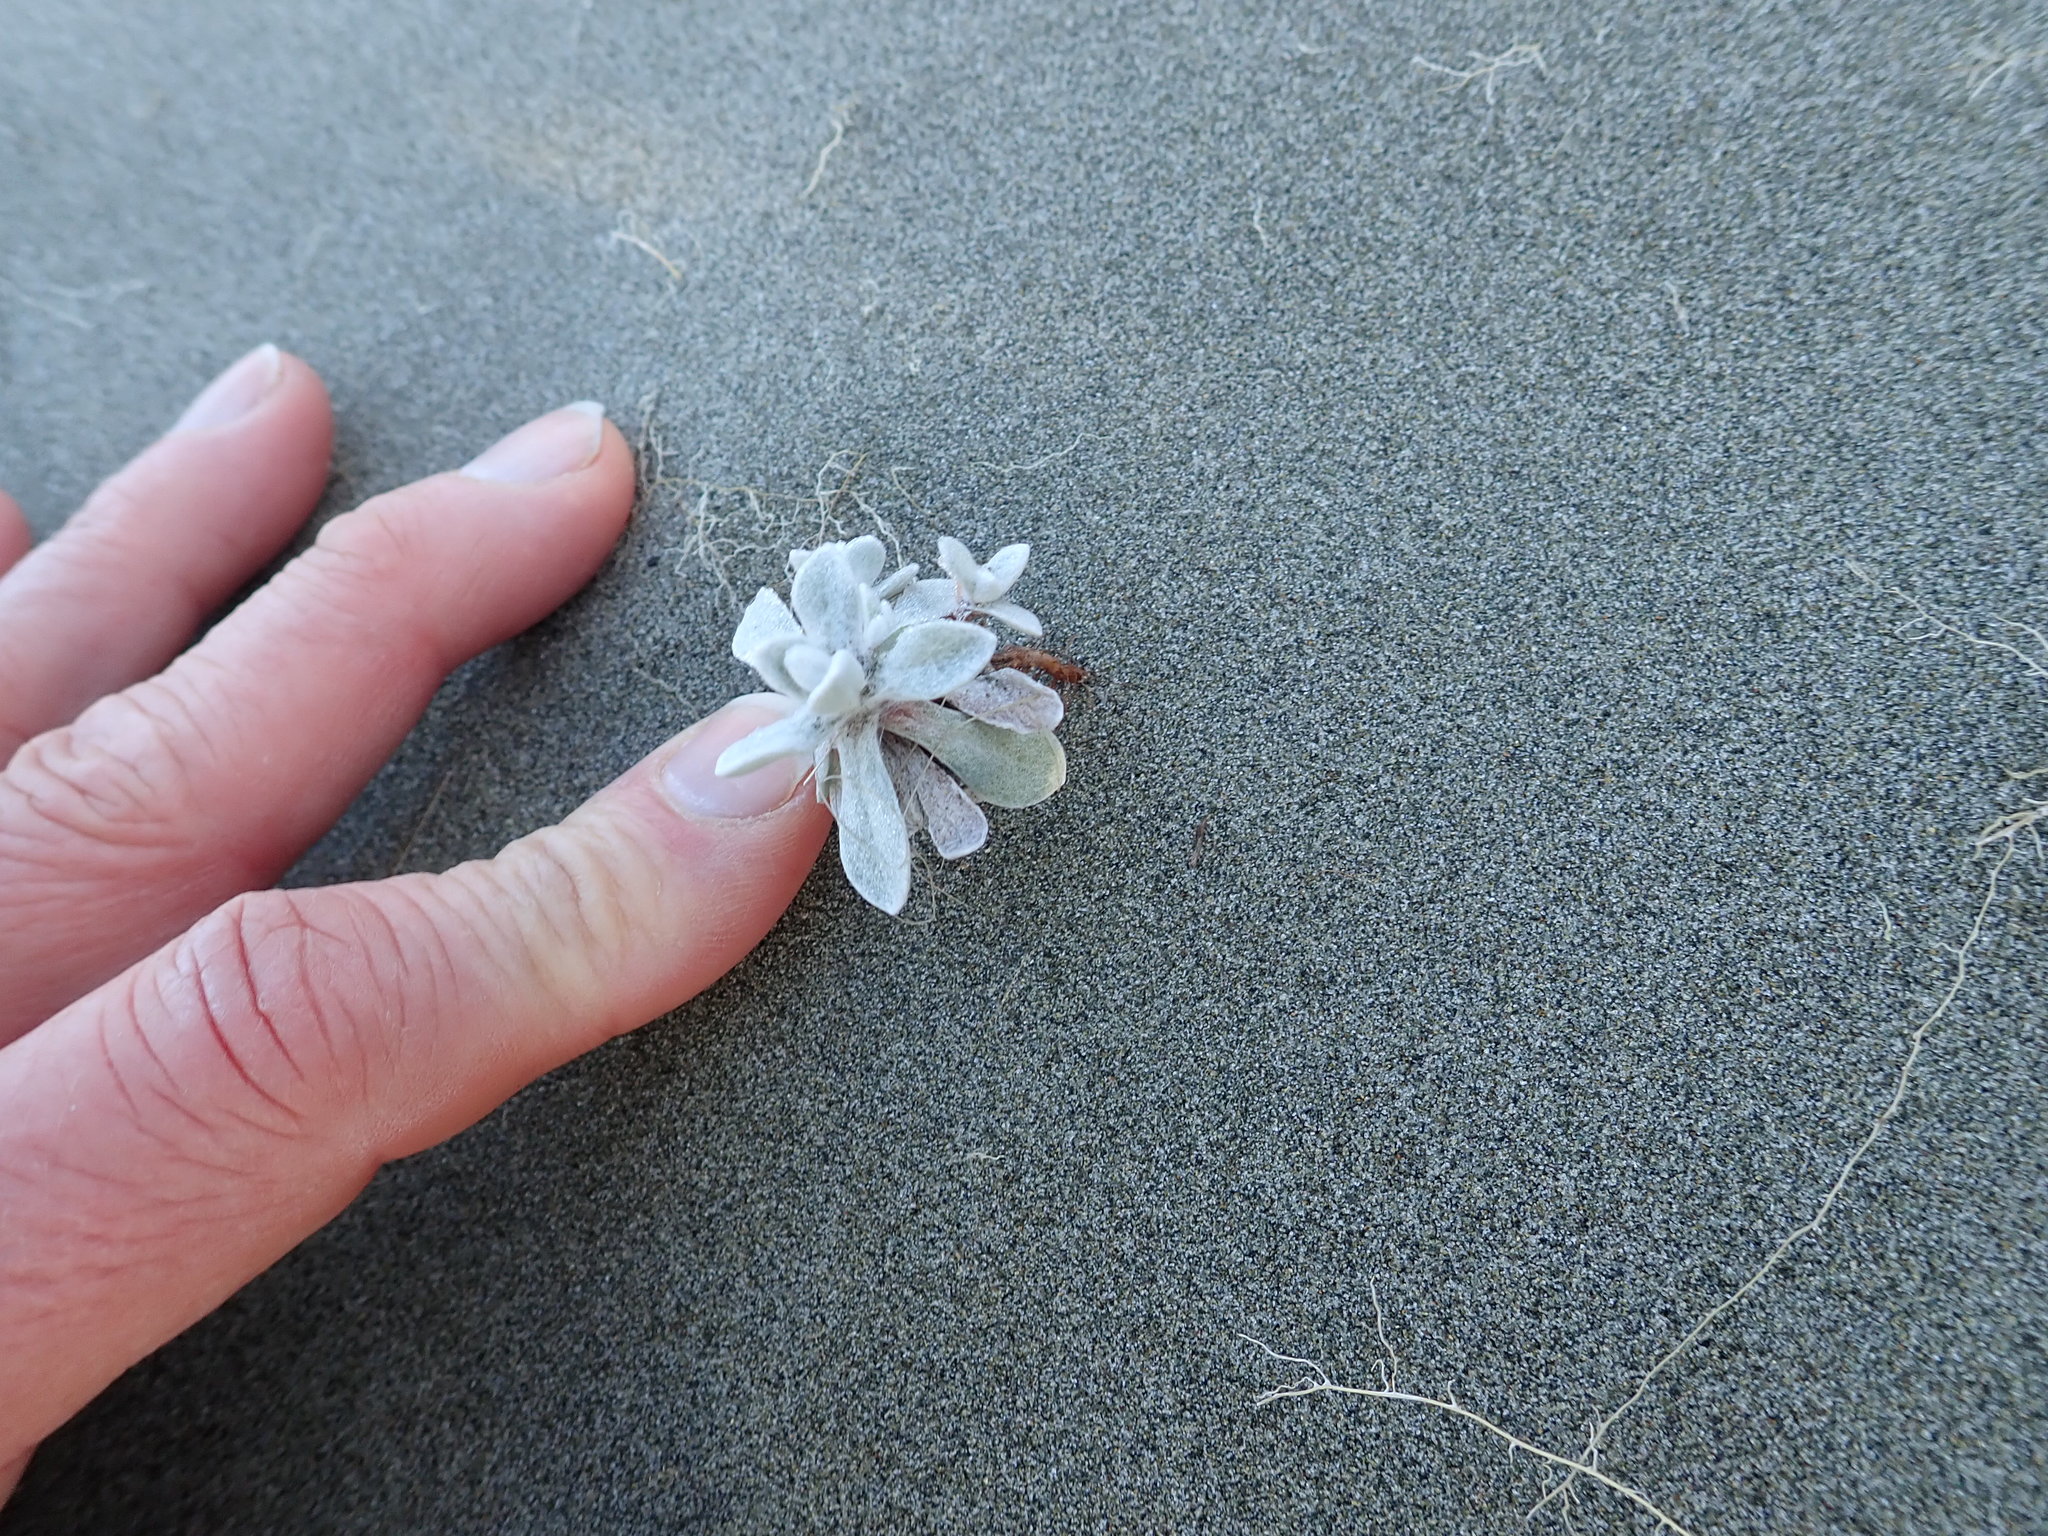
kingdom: Plantae
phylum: Tracheophyta
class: Magnoliopsida
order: Asterales
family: Asteraceae
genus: Helichrysum
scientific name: Helichrysum luteoalbum
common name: Daisy
